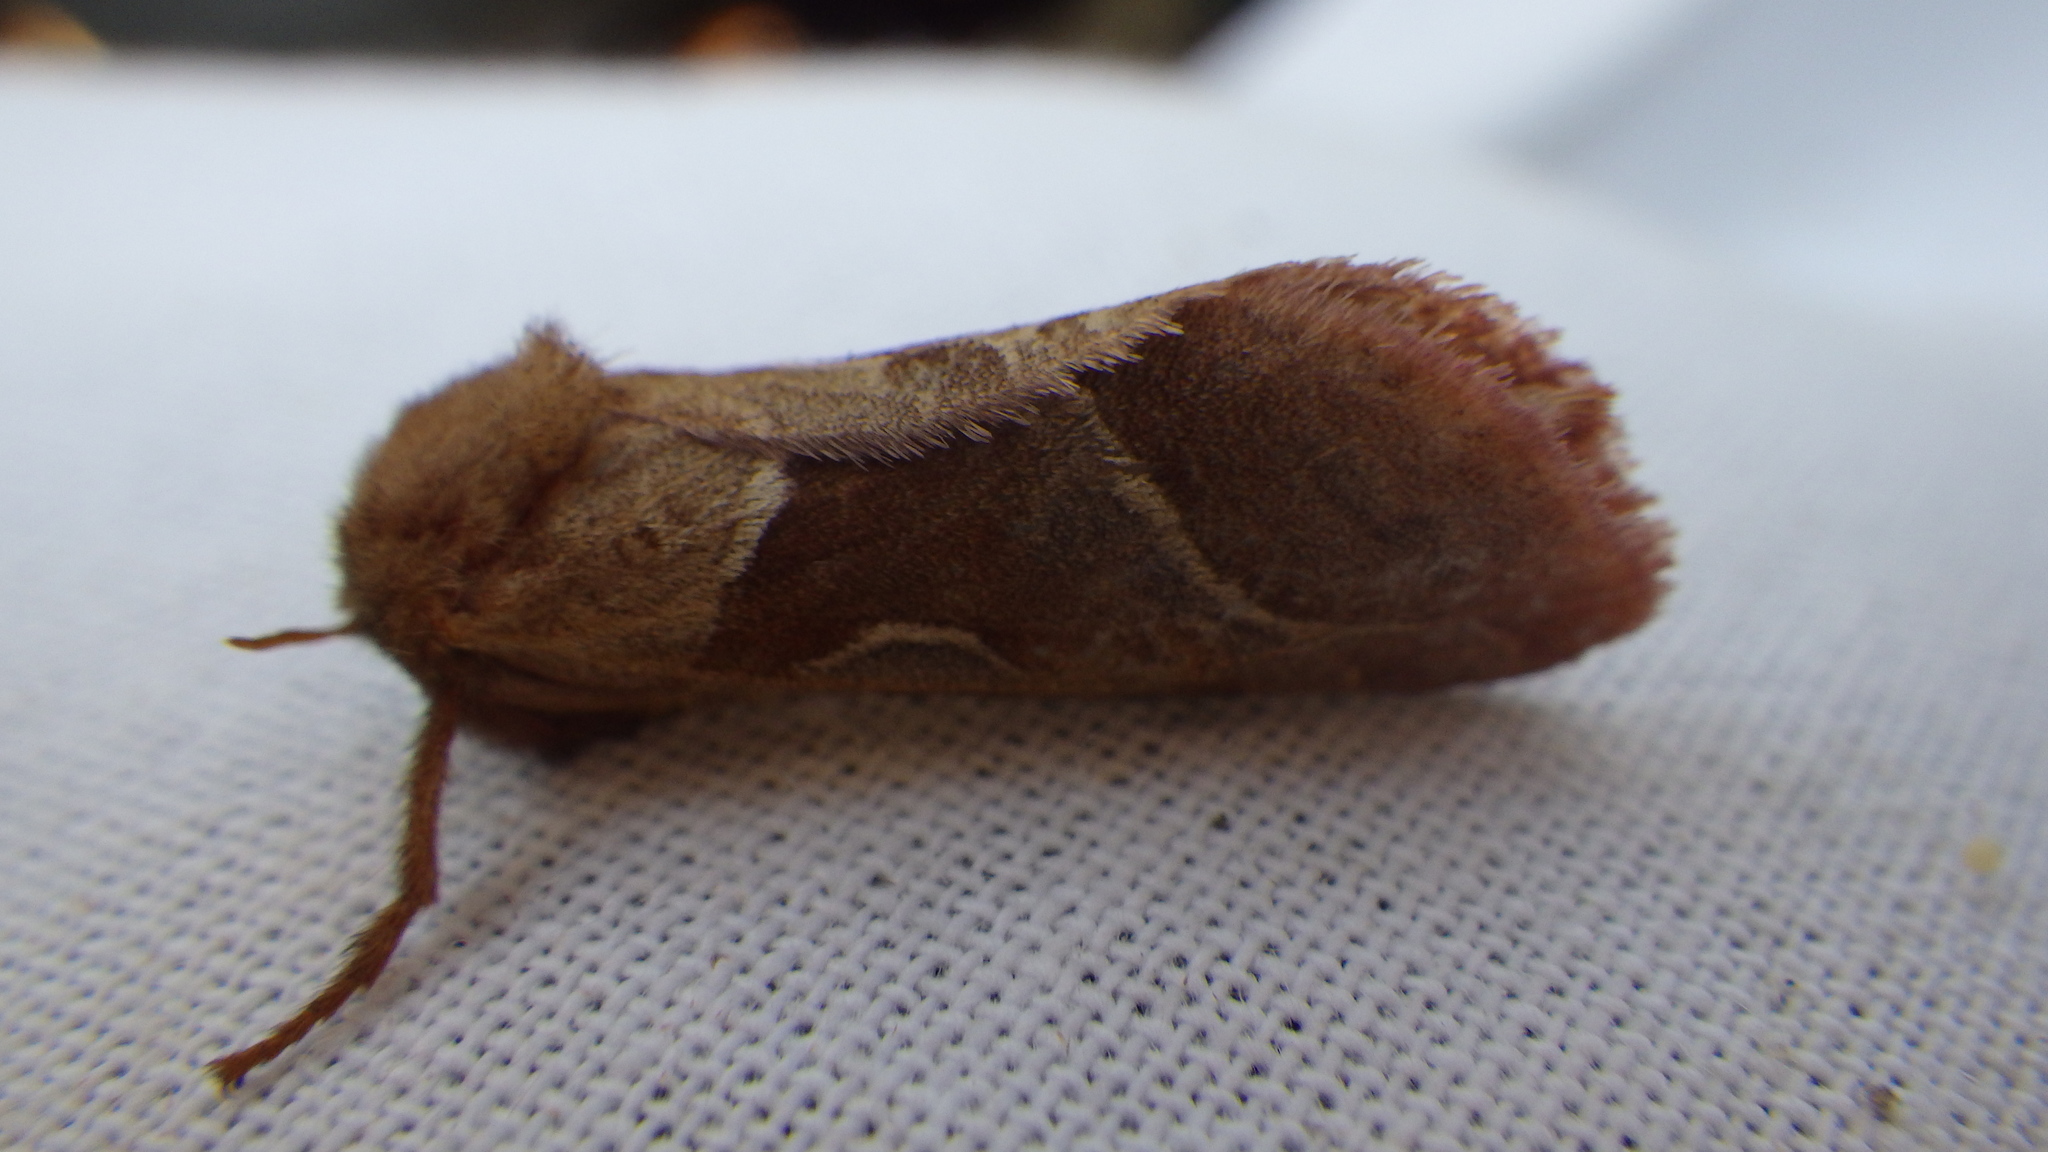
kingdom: Animalia
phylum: Arthropoda
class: Insecta
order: Lepidoptera
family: Hepialidae
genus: Triodia
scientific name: Triodia sylvina
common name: Orange swift
